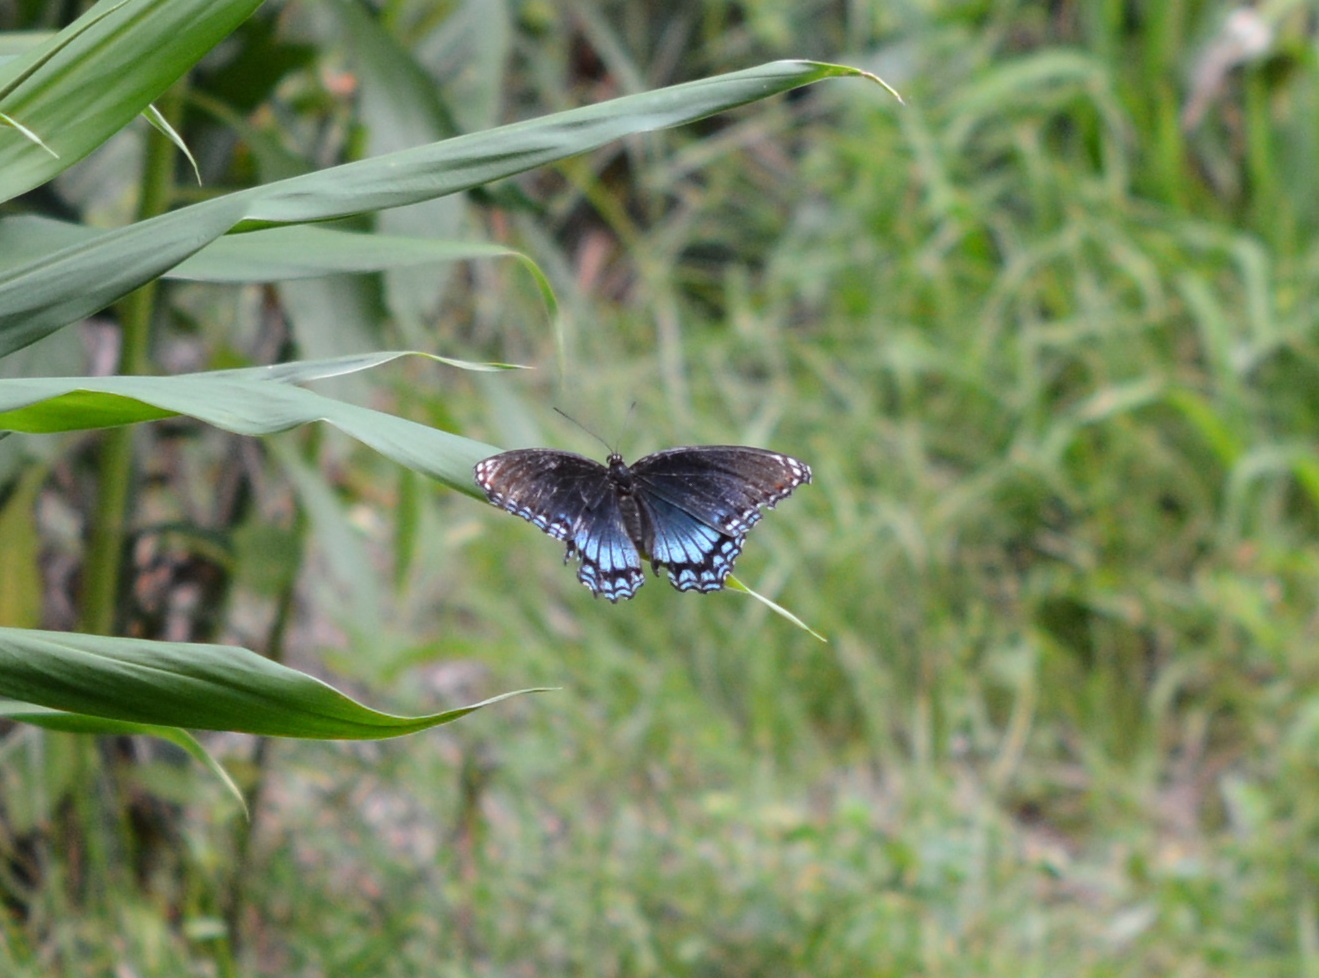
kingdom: Animalia
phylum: Arthropoda
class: Insecta
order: Lepidoptera
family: Nymphalidae
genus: Limenitis
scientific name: Limenitis astyanax
